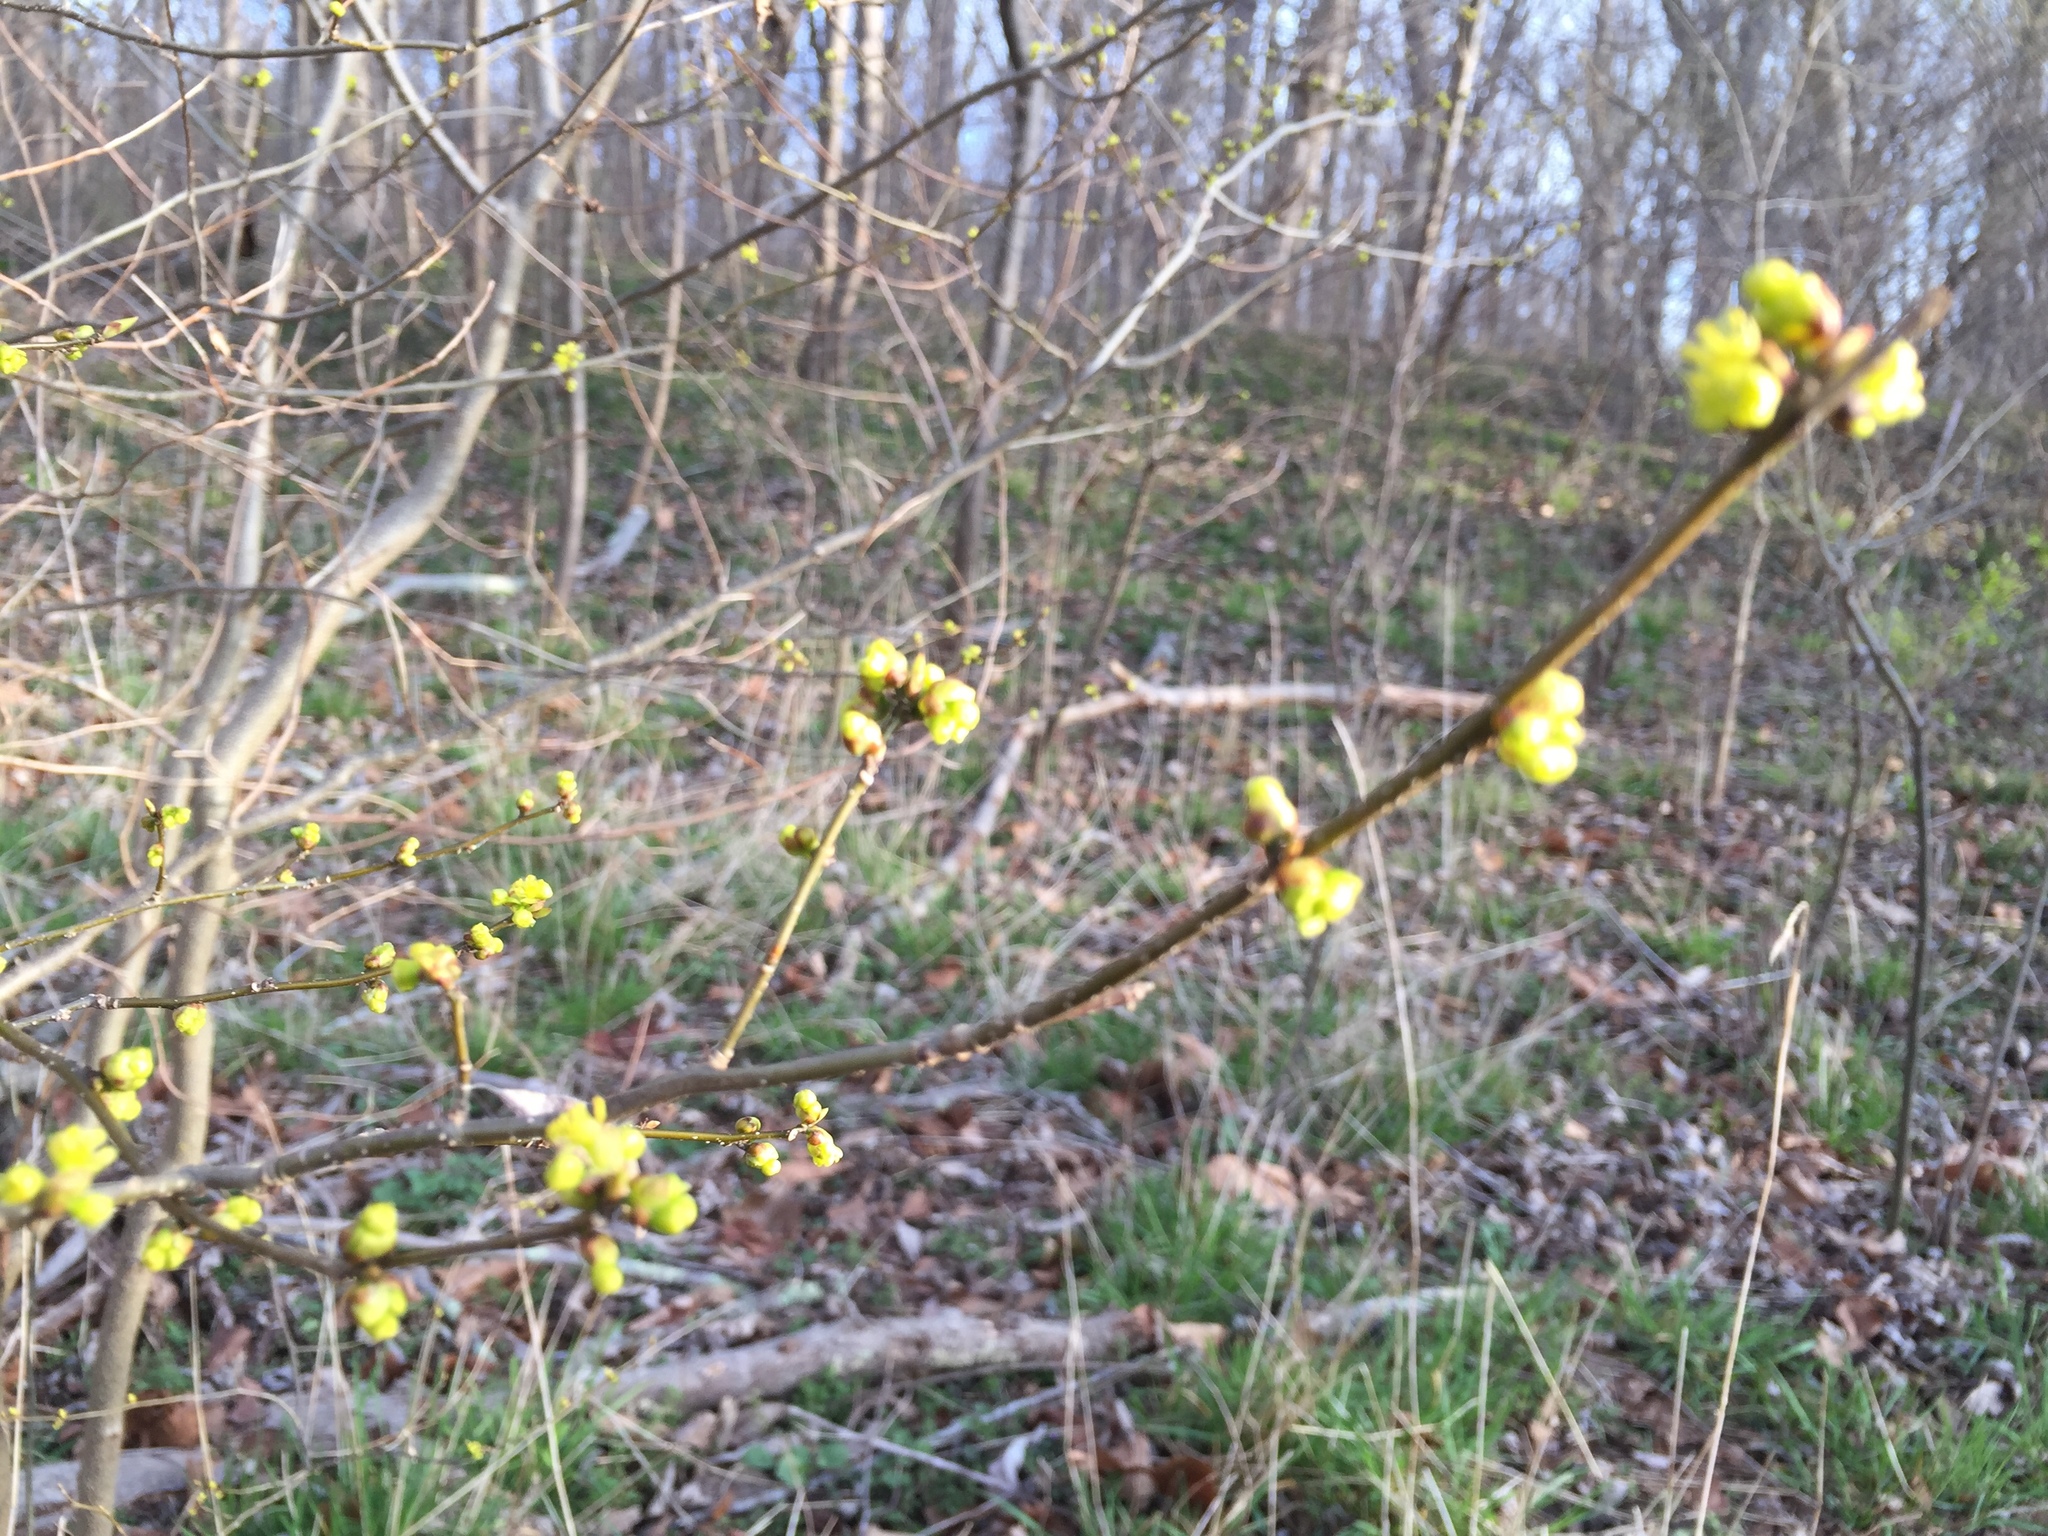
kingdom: Plantae
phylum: Tracheophyta
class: Magnoliopsida
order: Laurales
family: Lauraceae
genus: Lindera
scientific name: Lindera benzoin
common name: Spicebush
